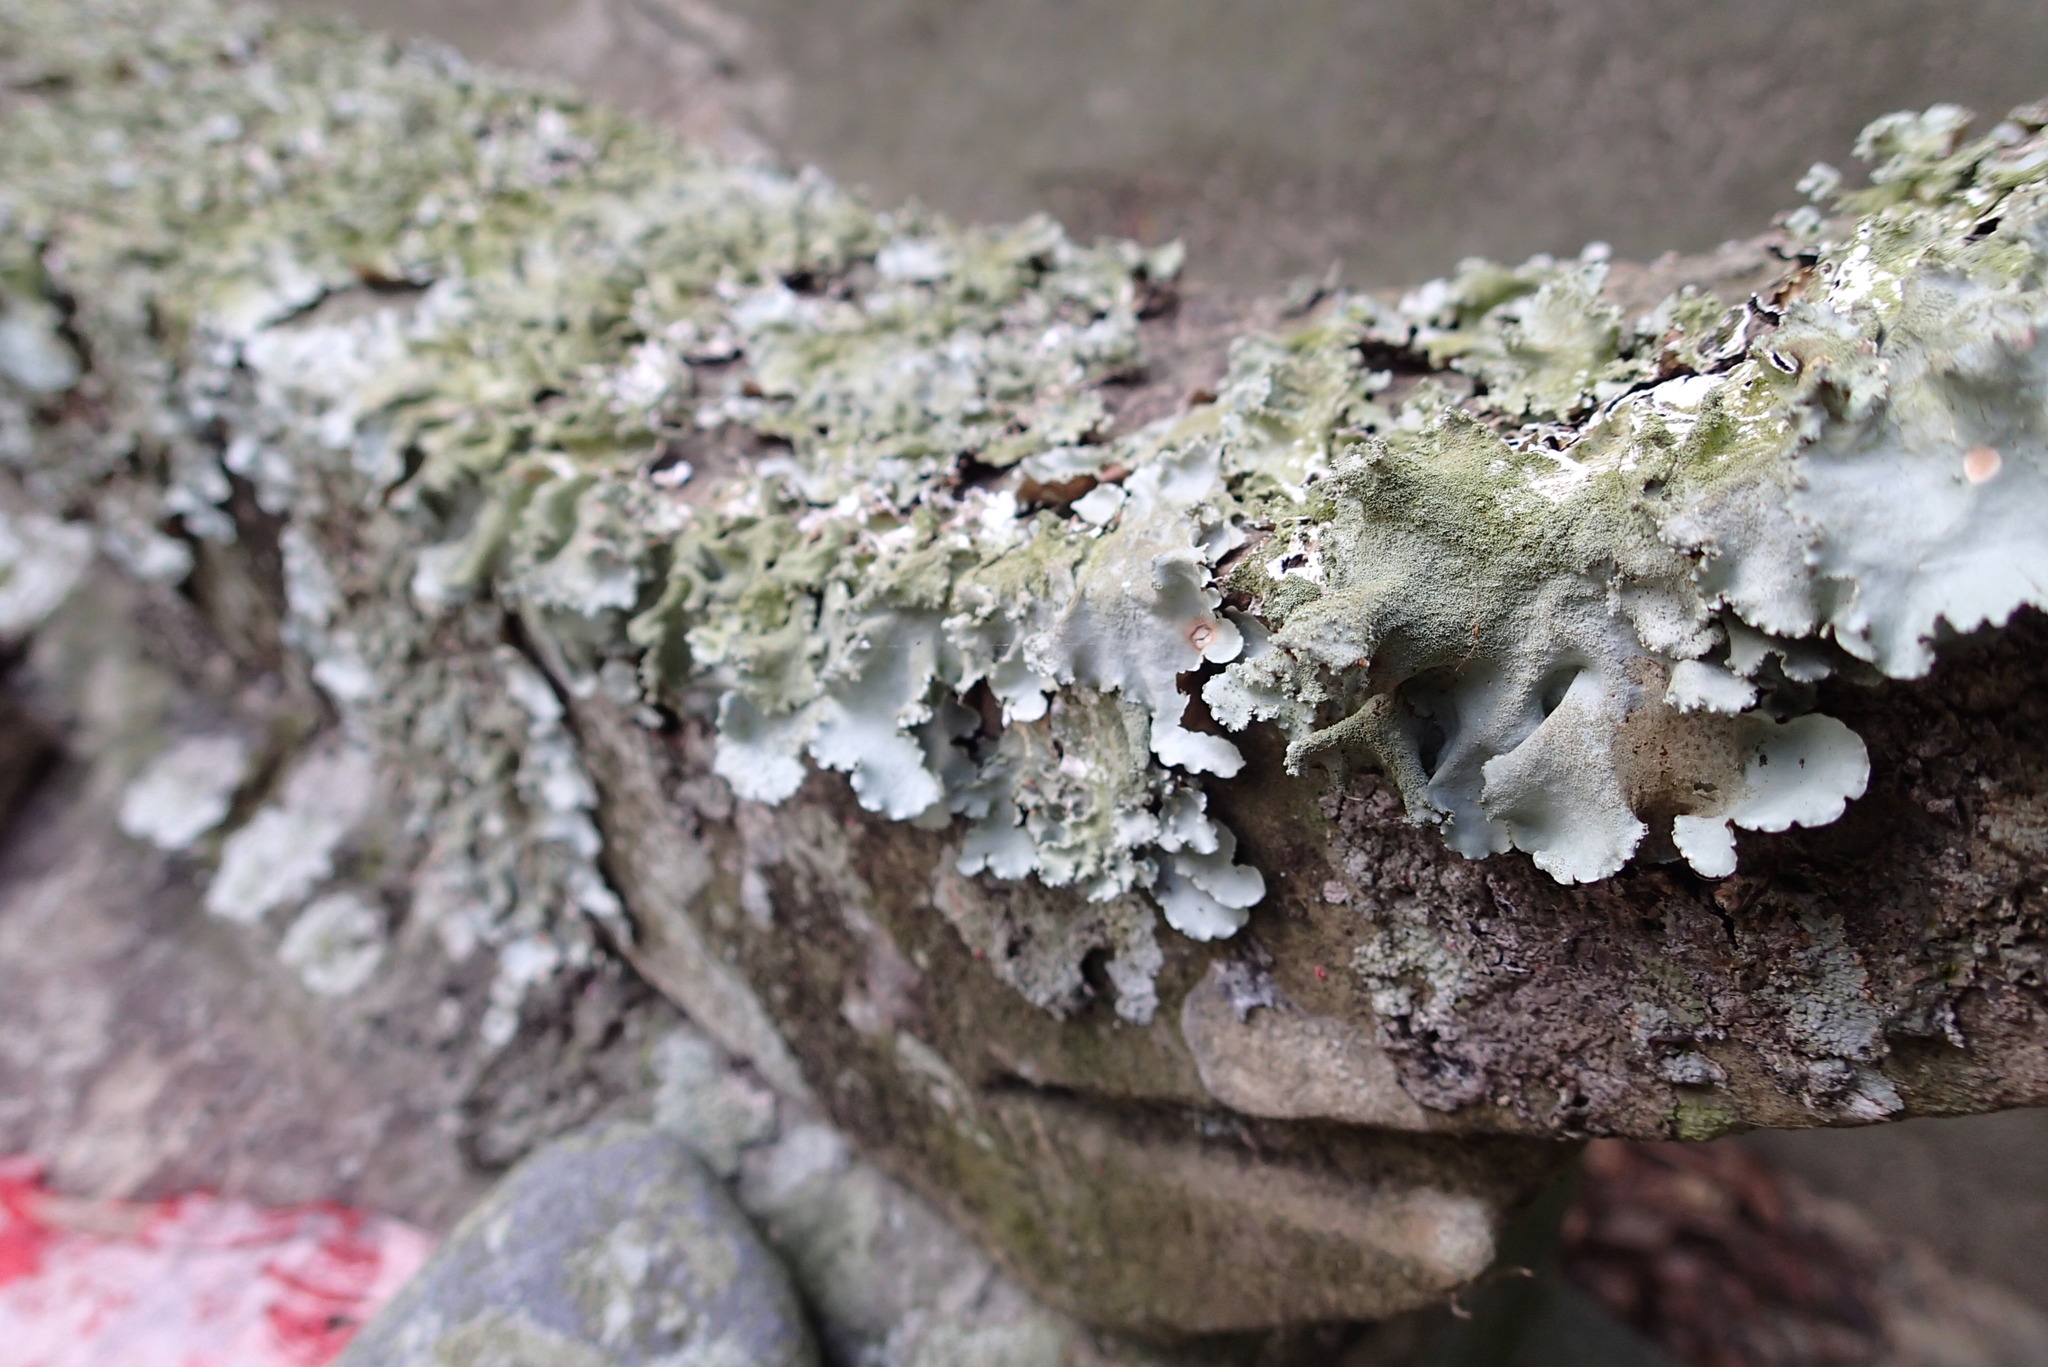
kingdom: Fungi
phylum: Ascomycota
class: Lecanoromycetes
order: Lecanorales
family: Parmeliaceae
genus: Parmotrema
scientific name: Parmotrema tinctorum
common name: Old gray ruffles
